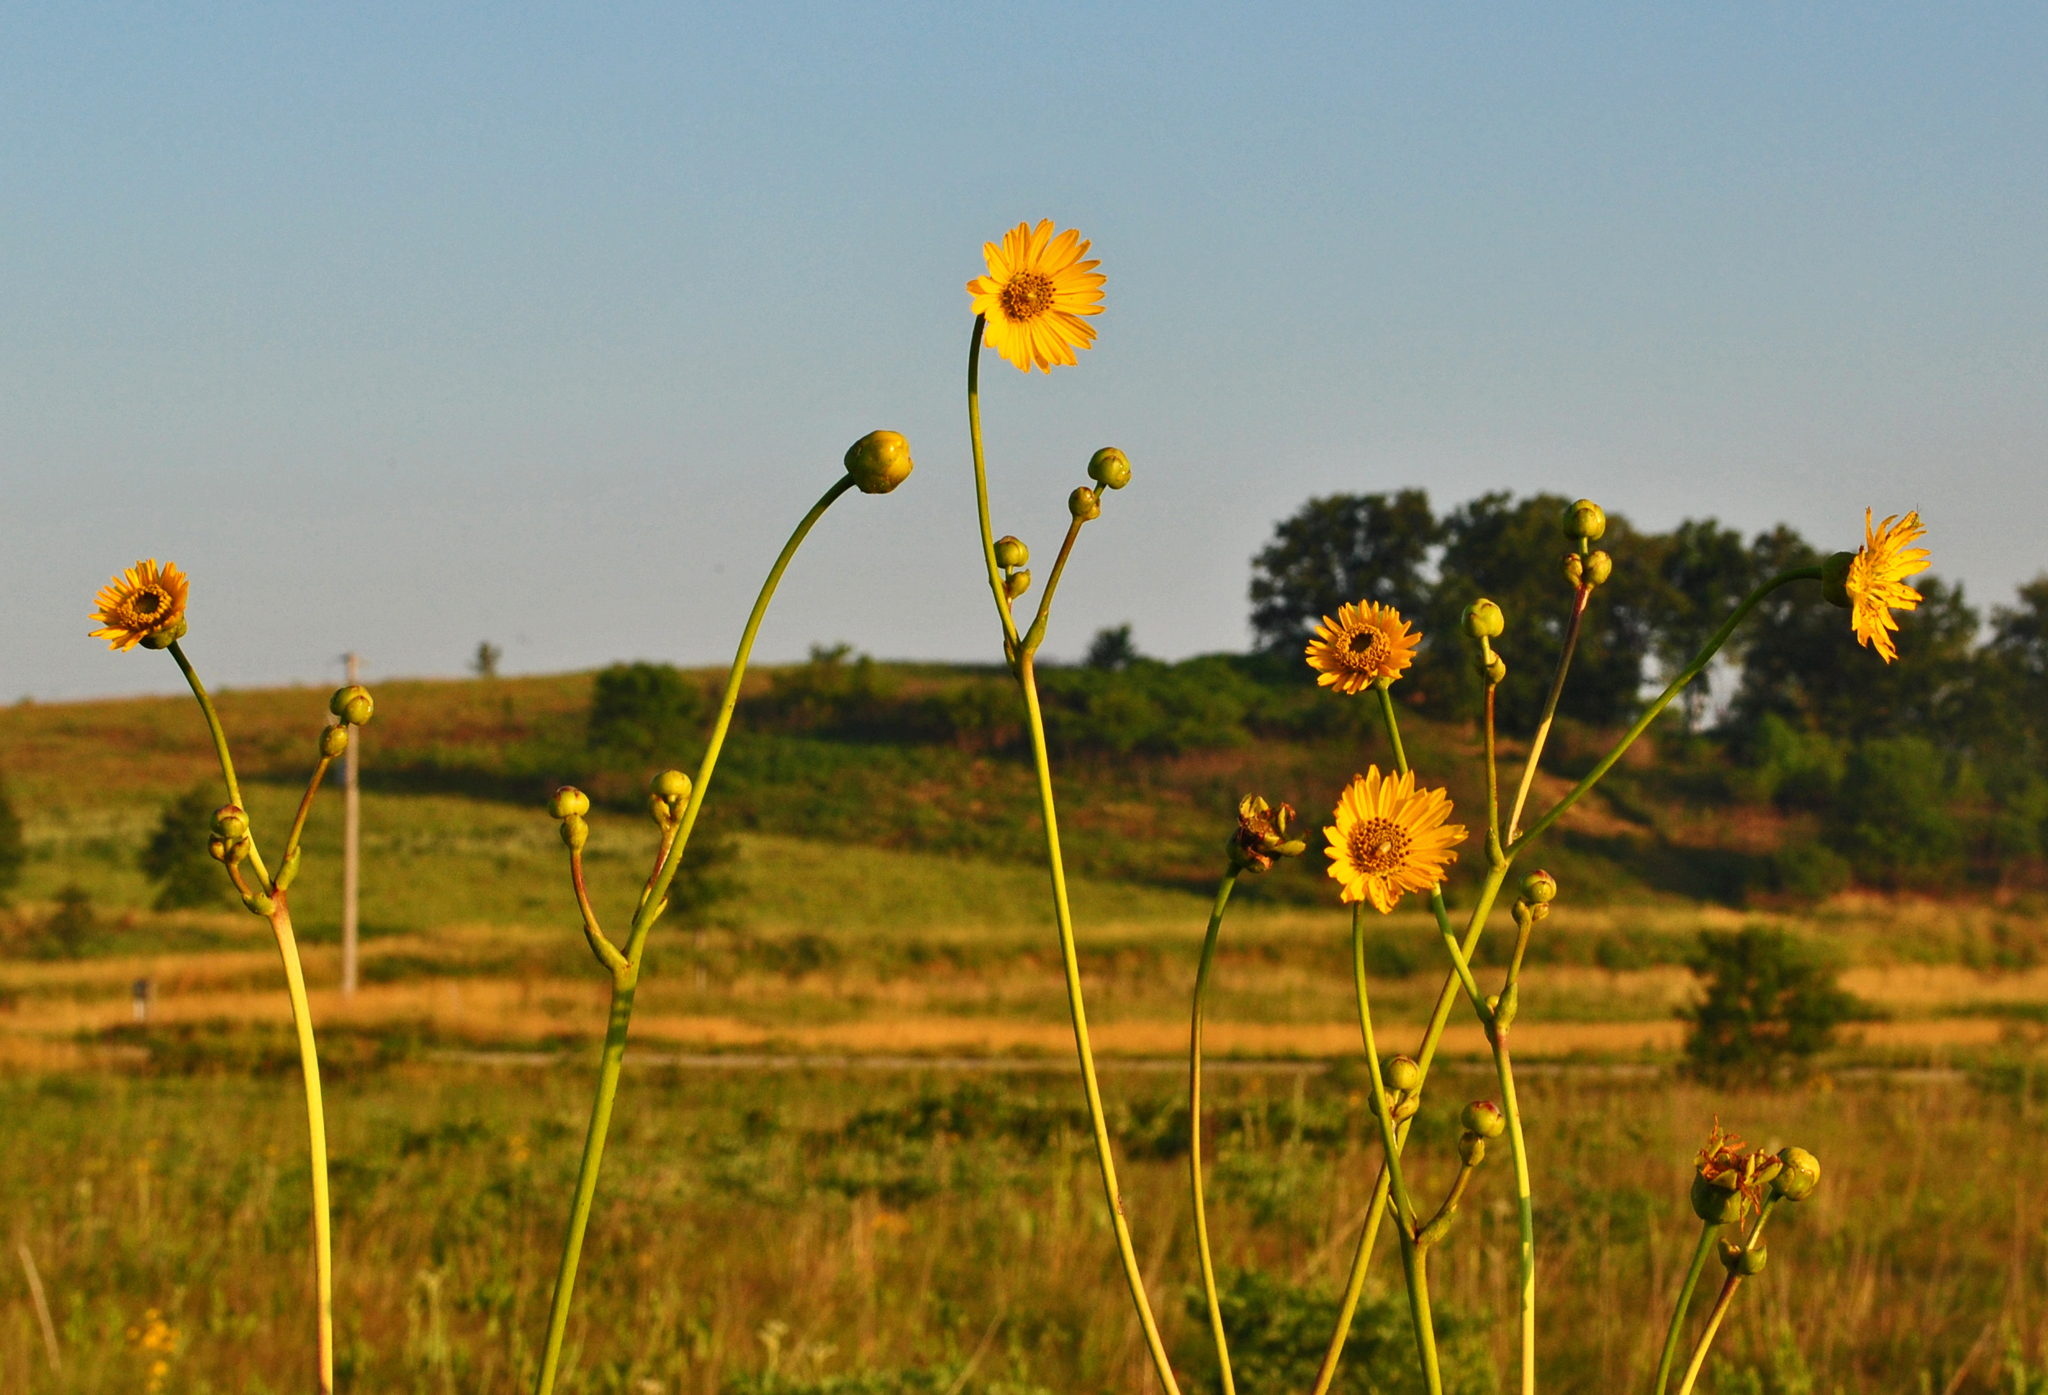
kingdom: Plantae
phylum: Tracheophyta
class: Magnoliopsida
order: Asterales
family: Asteraceae
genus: Silphium
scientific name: Silphium terebinthinaceum
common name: Basal-leaf rosinweed
